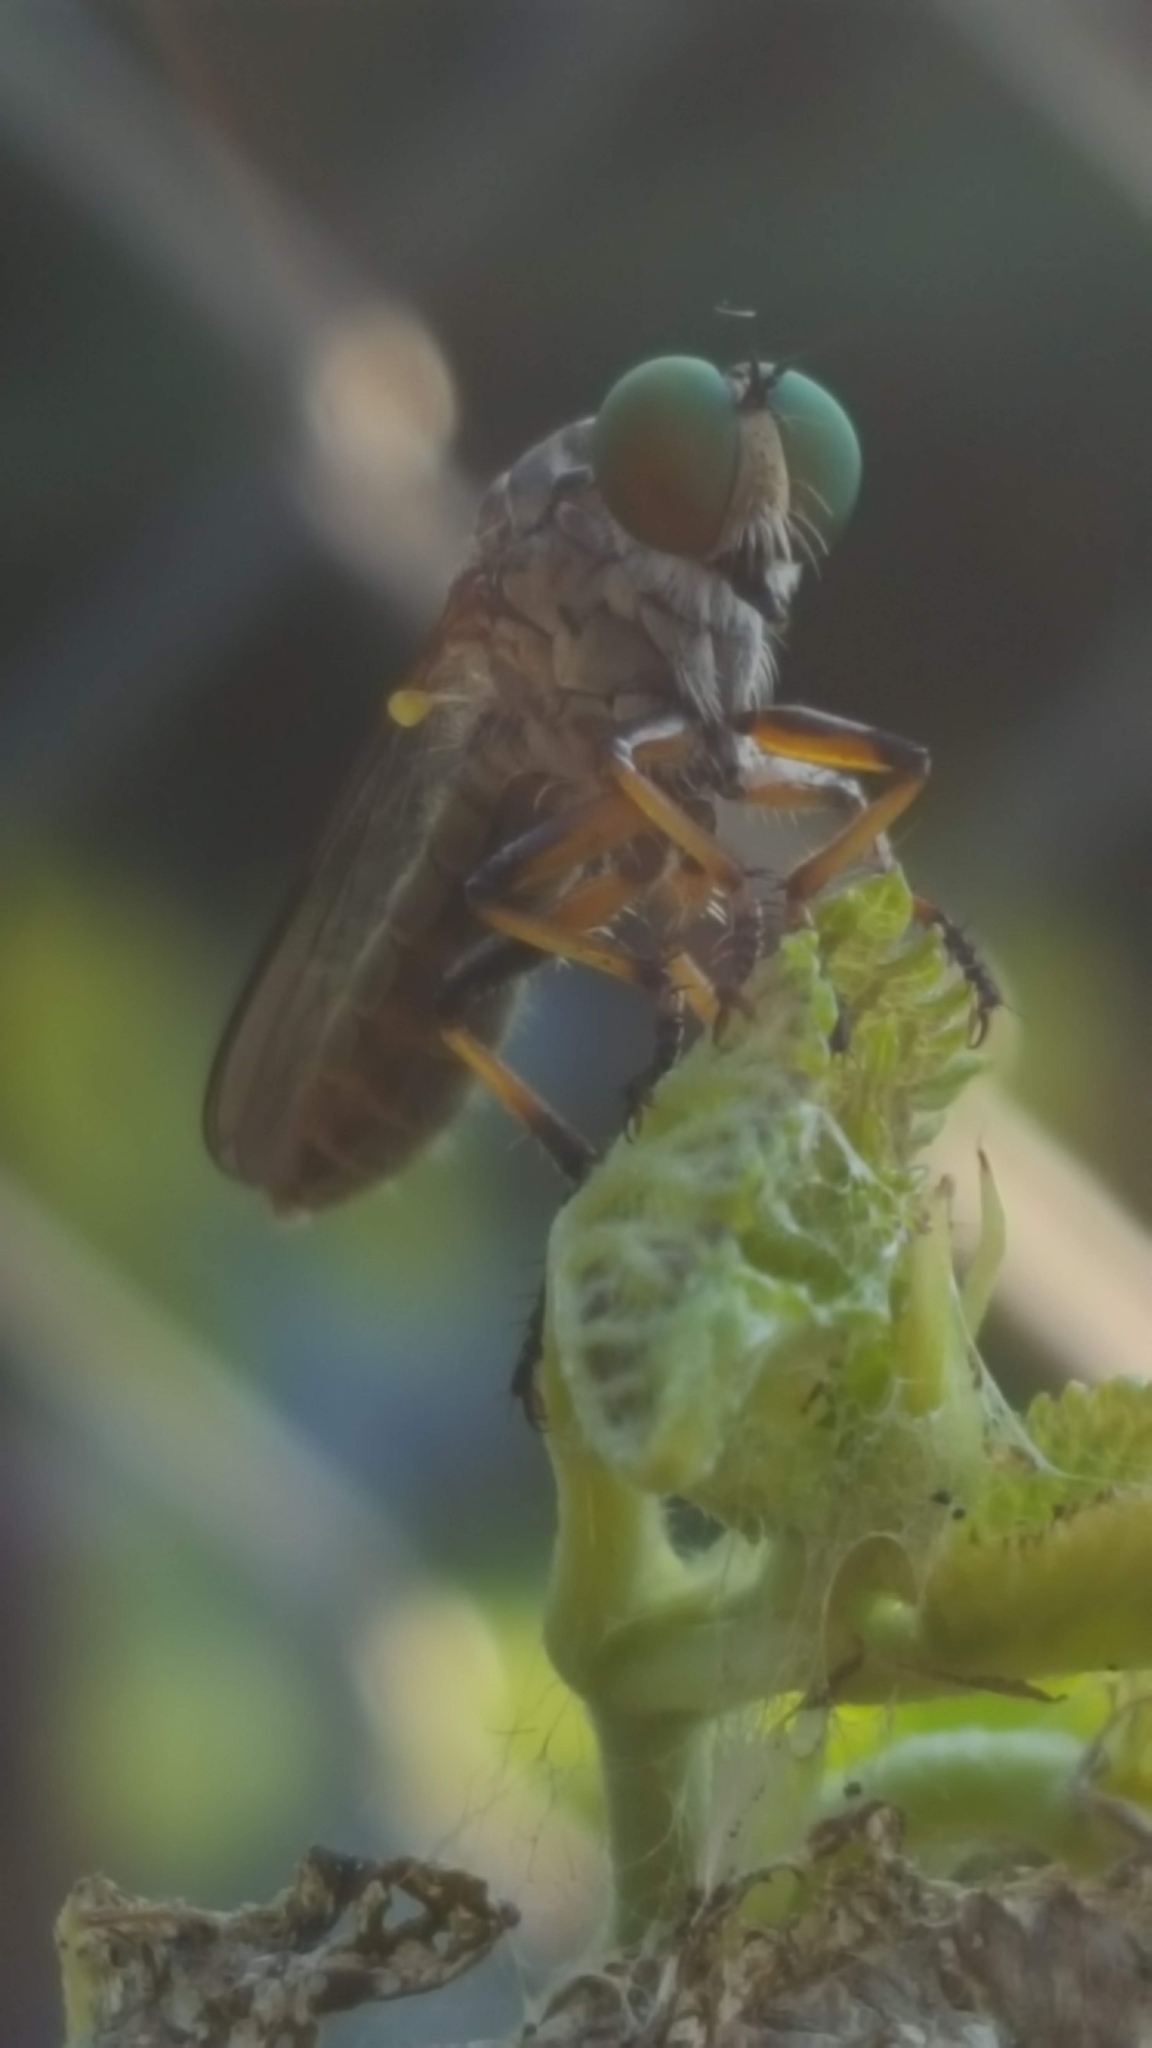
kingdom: Animalia
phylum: Arthropoda
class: Insecta
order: Diptera
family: Asilidae
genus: Ommatius
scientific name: Ommatius
